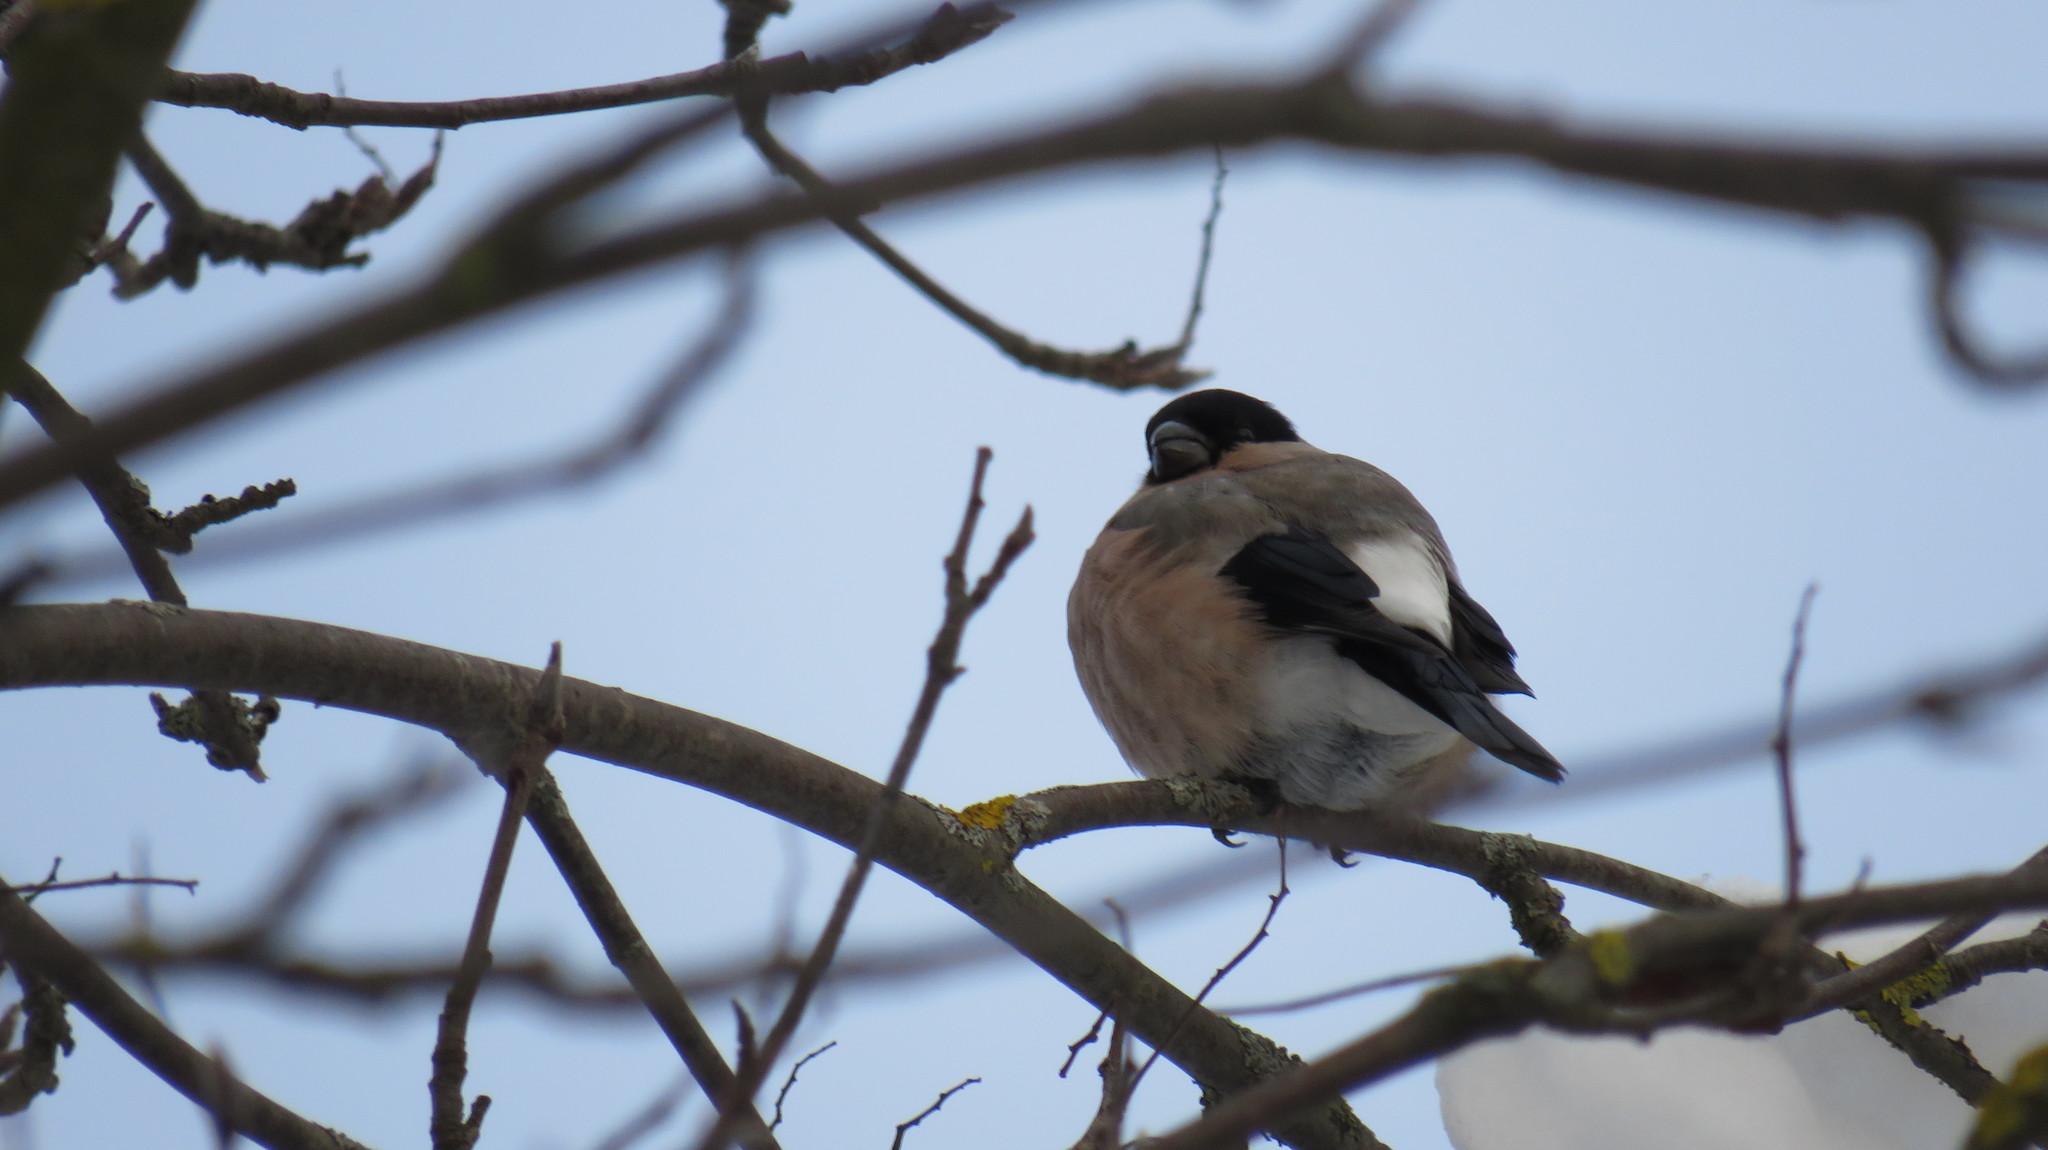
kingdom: Animalia
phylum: Chordata
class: Aves
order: Passeriformes
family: Fringillidae
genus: Pyrrhula
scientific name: Pyrrhula pyrrhula
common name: Eurasian bullfinch
